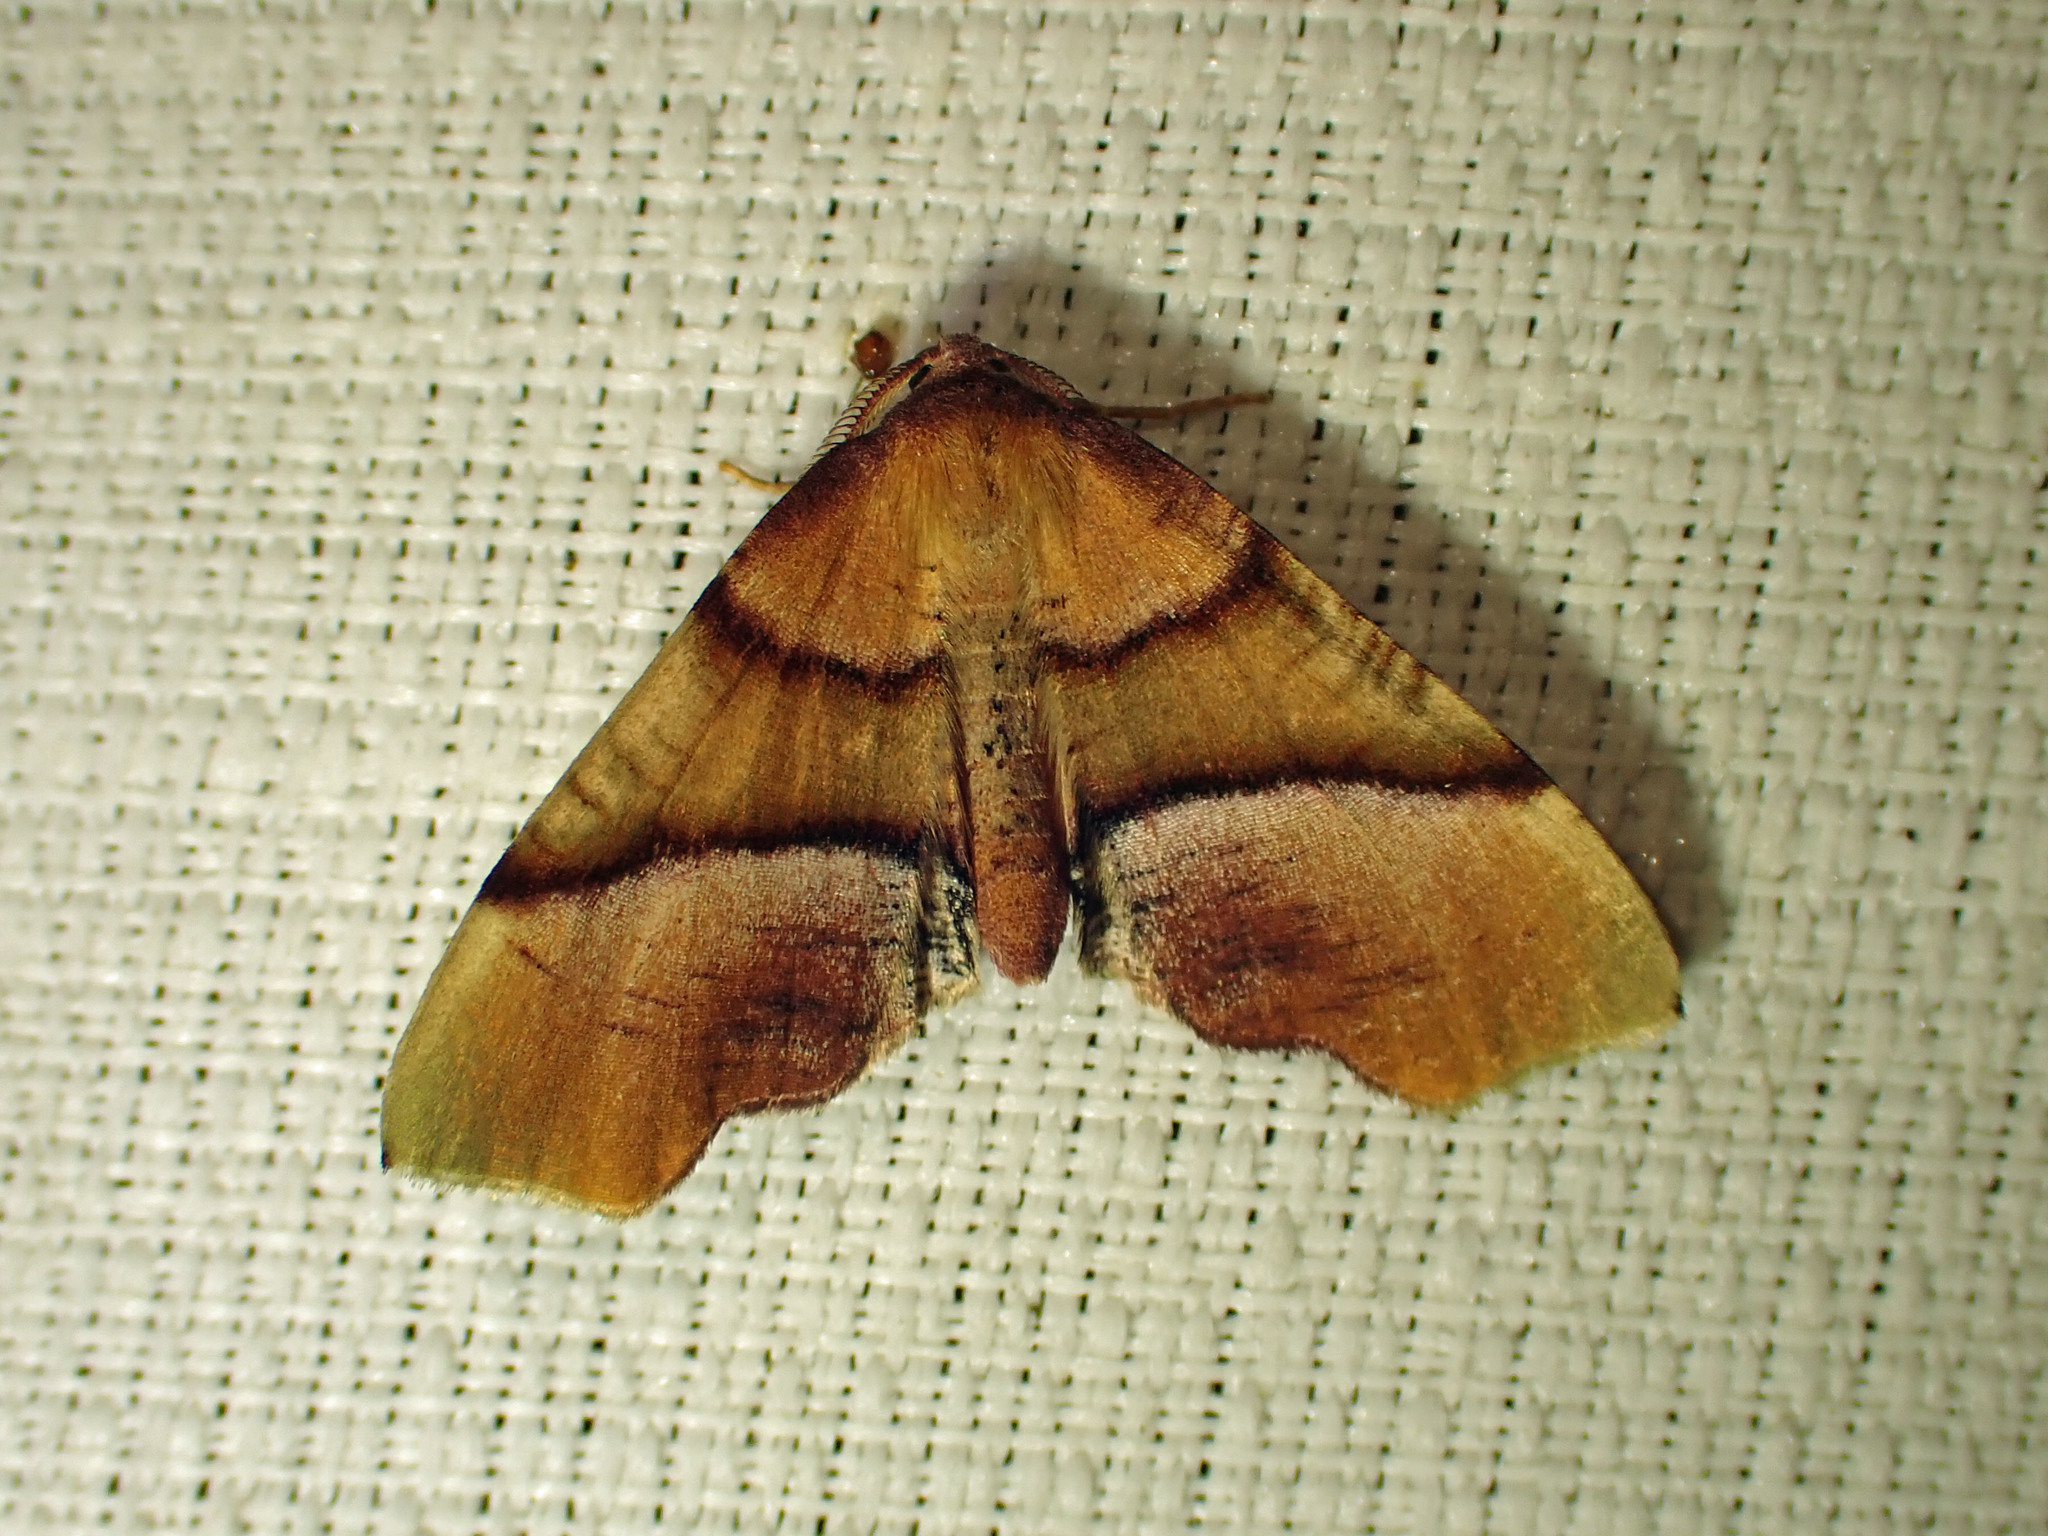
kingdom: Animalia
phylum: Arthropoda
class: Insecta
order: Lepidoptera
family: Geometridae
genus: Plagodis
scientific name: Plagodis phlogosaria
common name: Straight-lined plagodis
